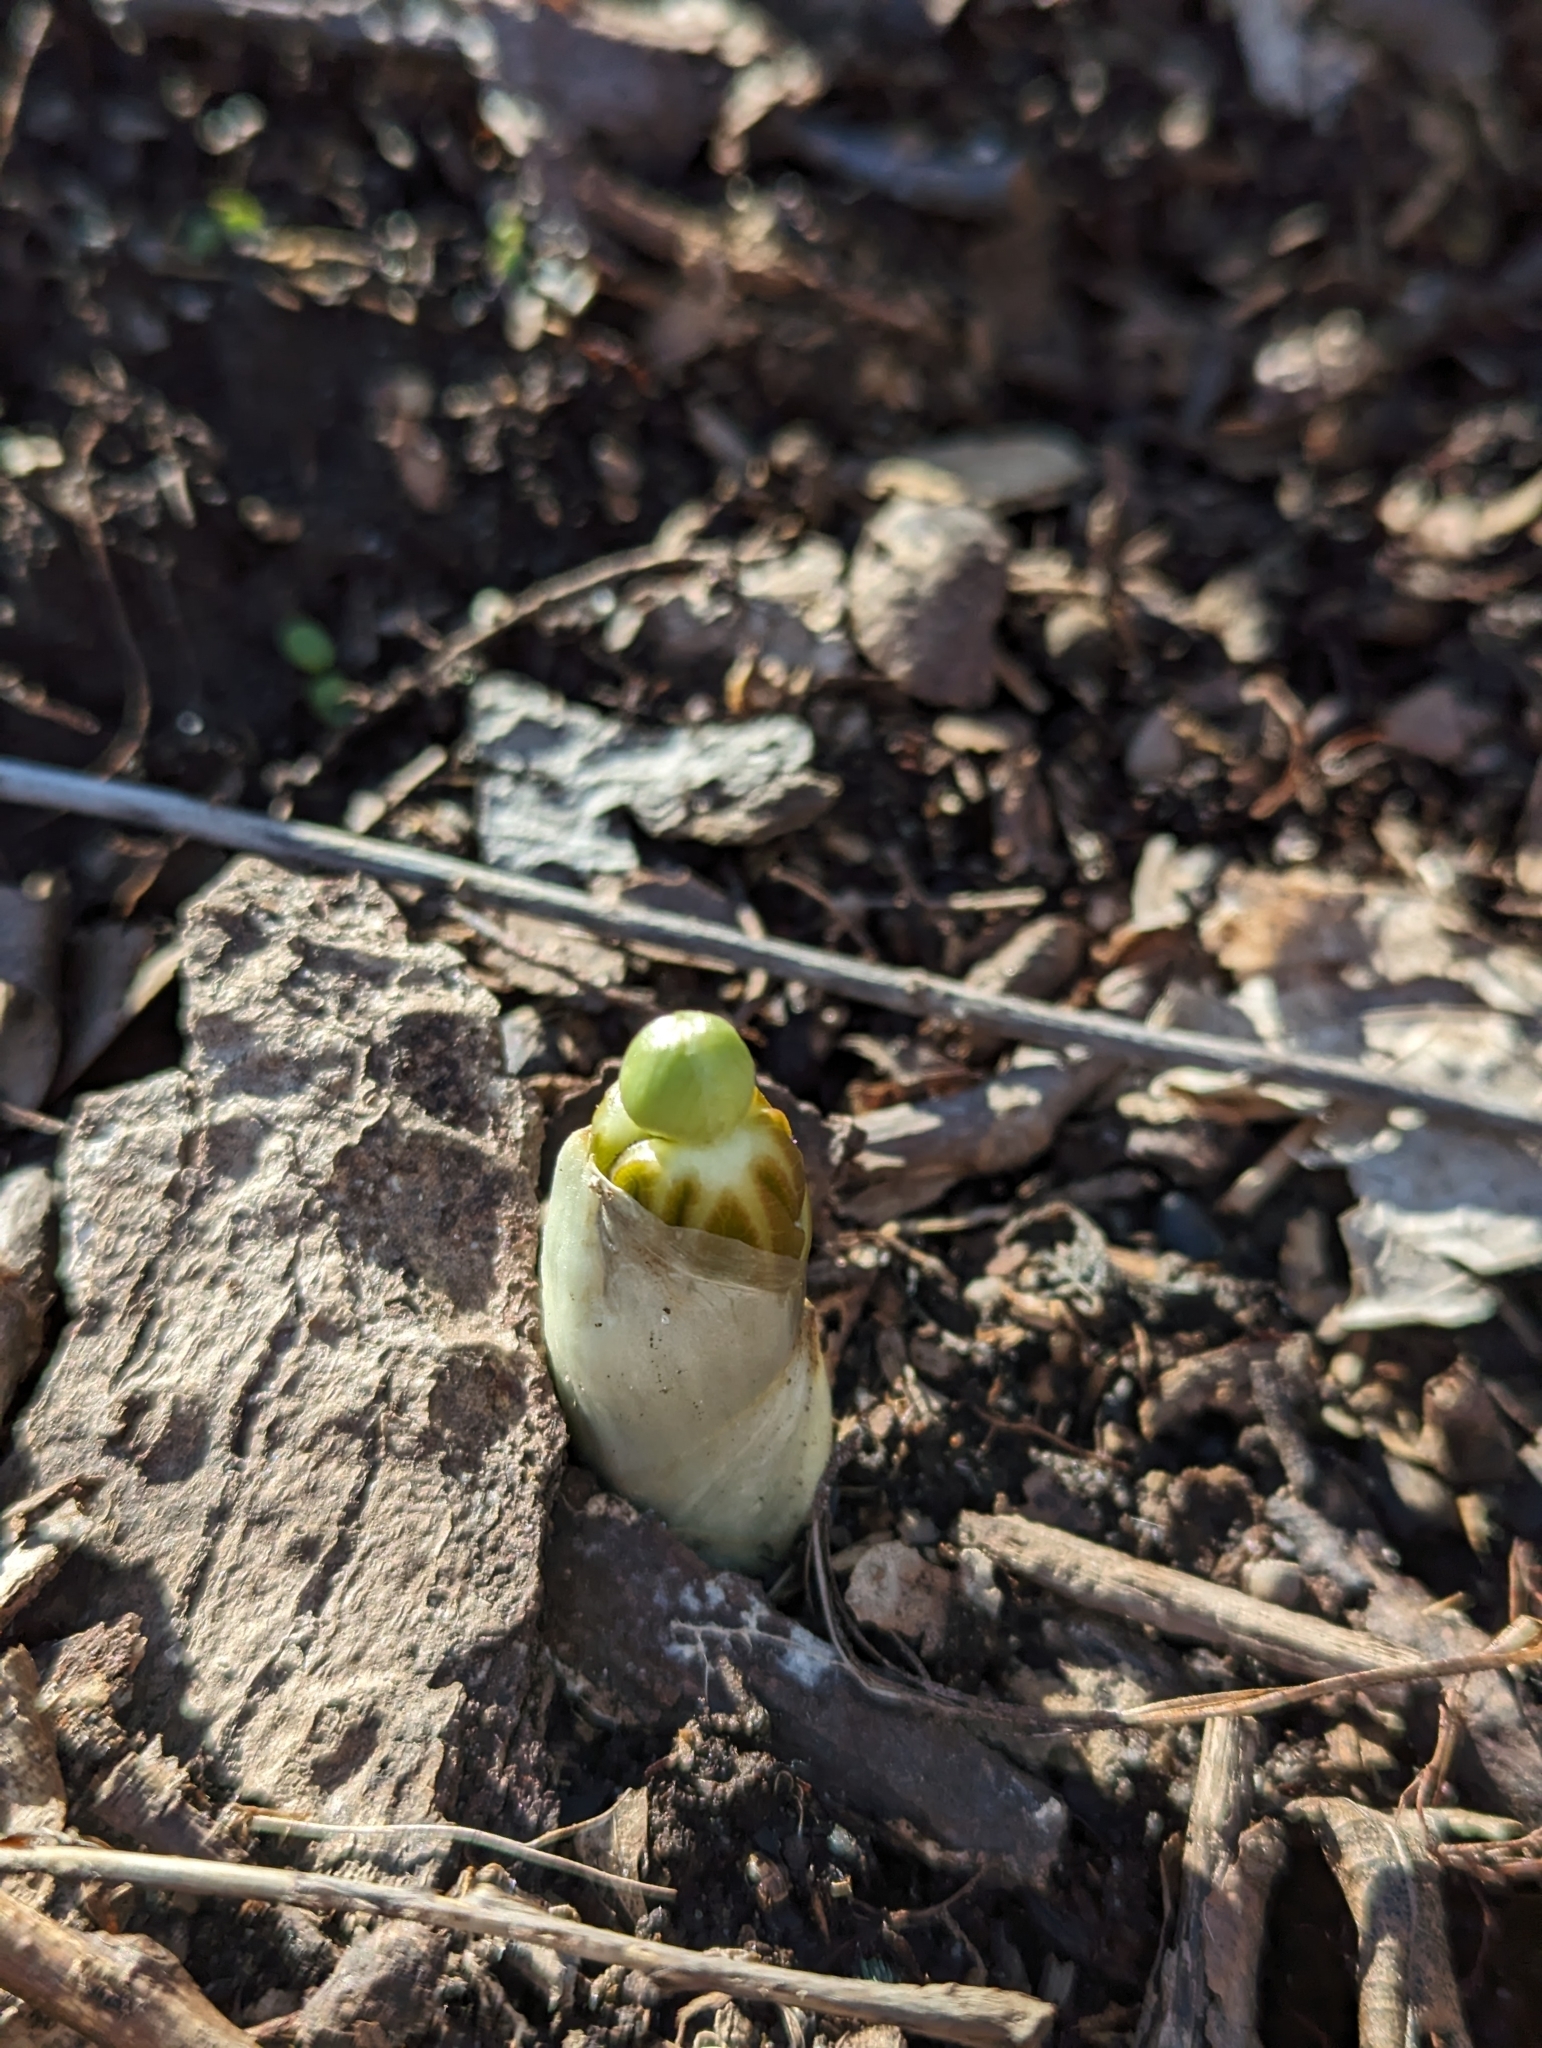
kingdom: Plantae
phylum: Tracheophyta
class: Magnoliopsida
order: Ranunculales
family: Berberidaceae
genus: Podophyllum
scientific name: Podophyllum peltatum
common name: Wild mandrake
